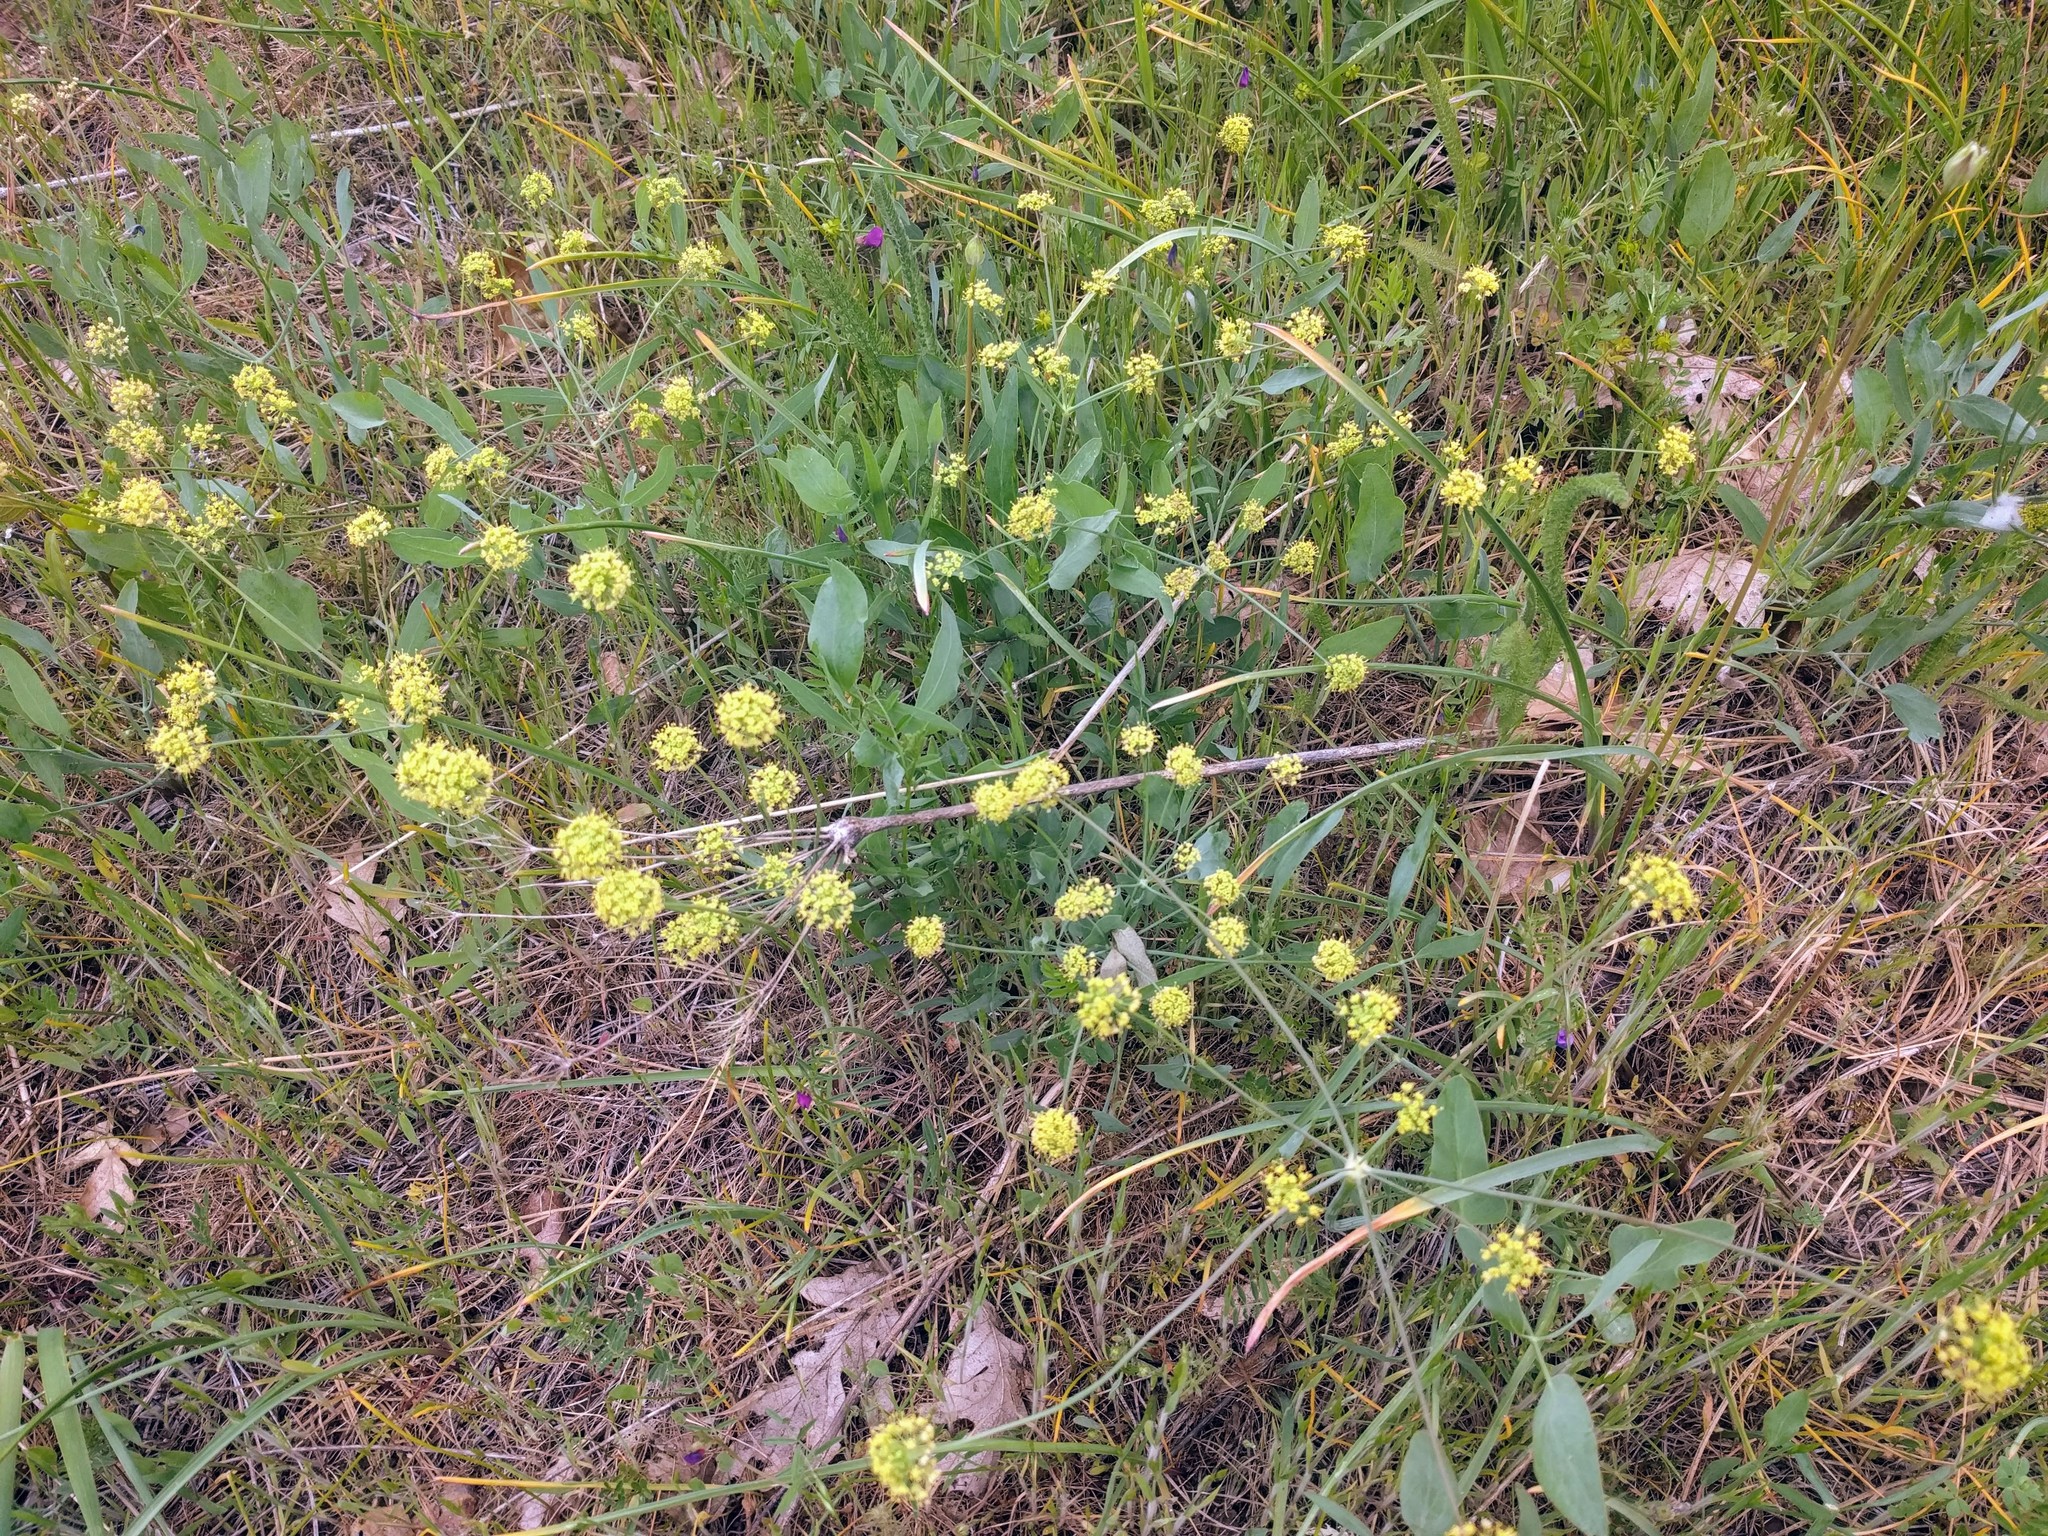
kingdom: Plantae
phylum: Tracheophyta
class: Magnoliopsida
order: Apiales
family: Apiaceae
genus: Lomatium
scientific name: Lomatium nudicaule
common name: Pestle lomatium
